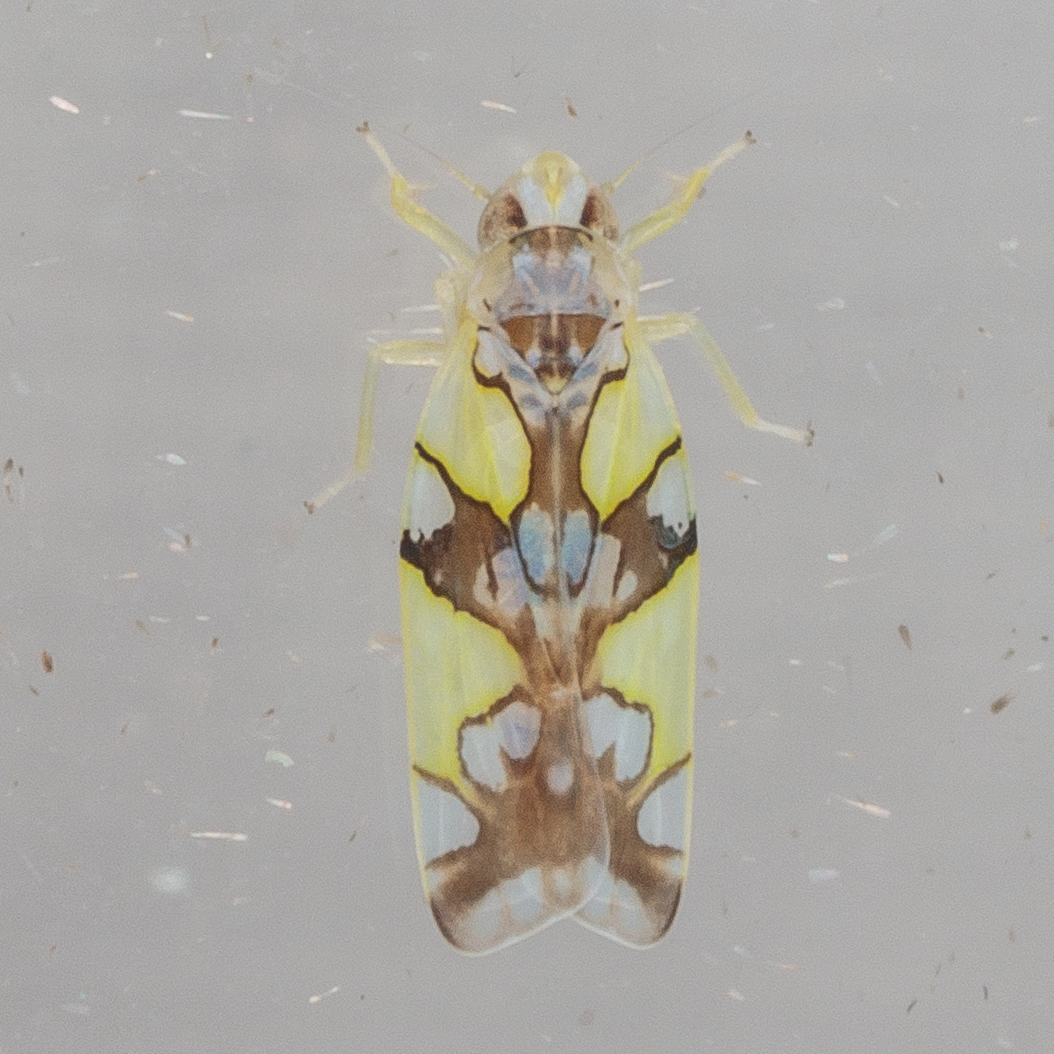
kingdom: Animalia
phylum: Arthropoda
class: Insecta
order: Hemiptera
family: Cicadellidae
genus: Protalebrella
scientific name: Protalebrella conica
